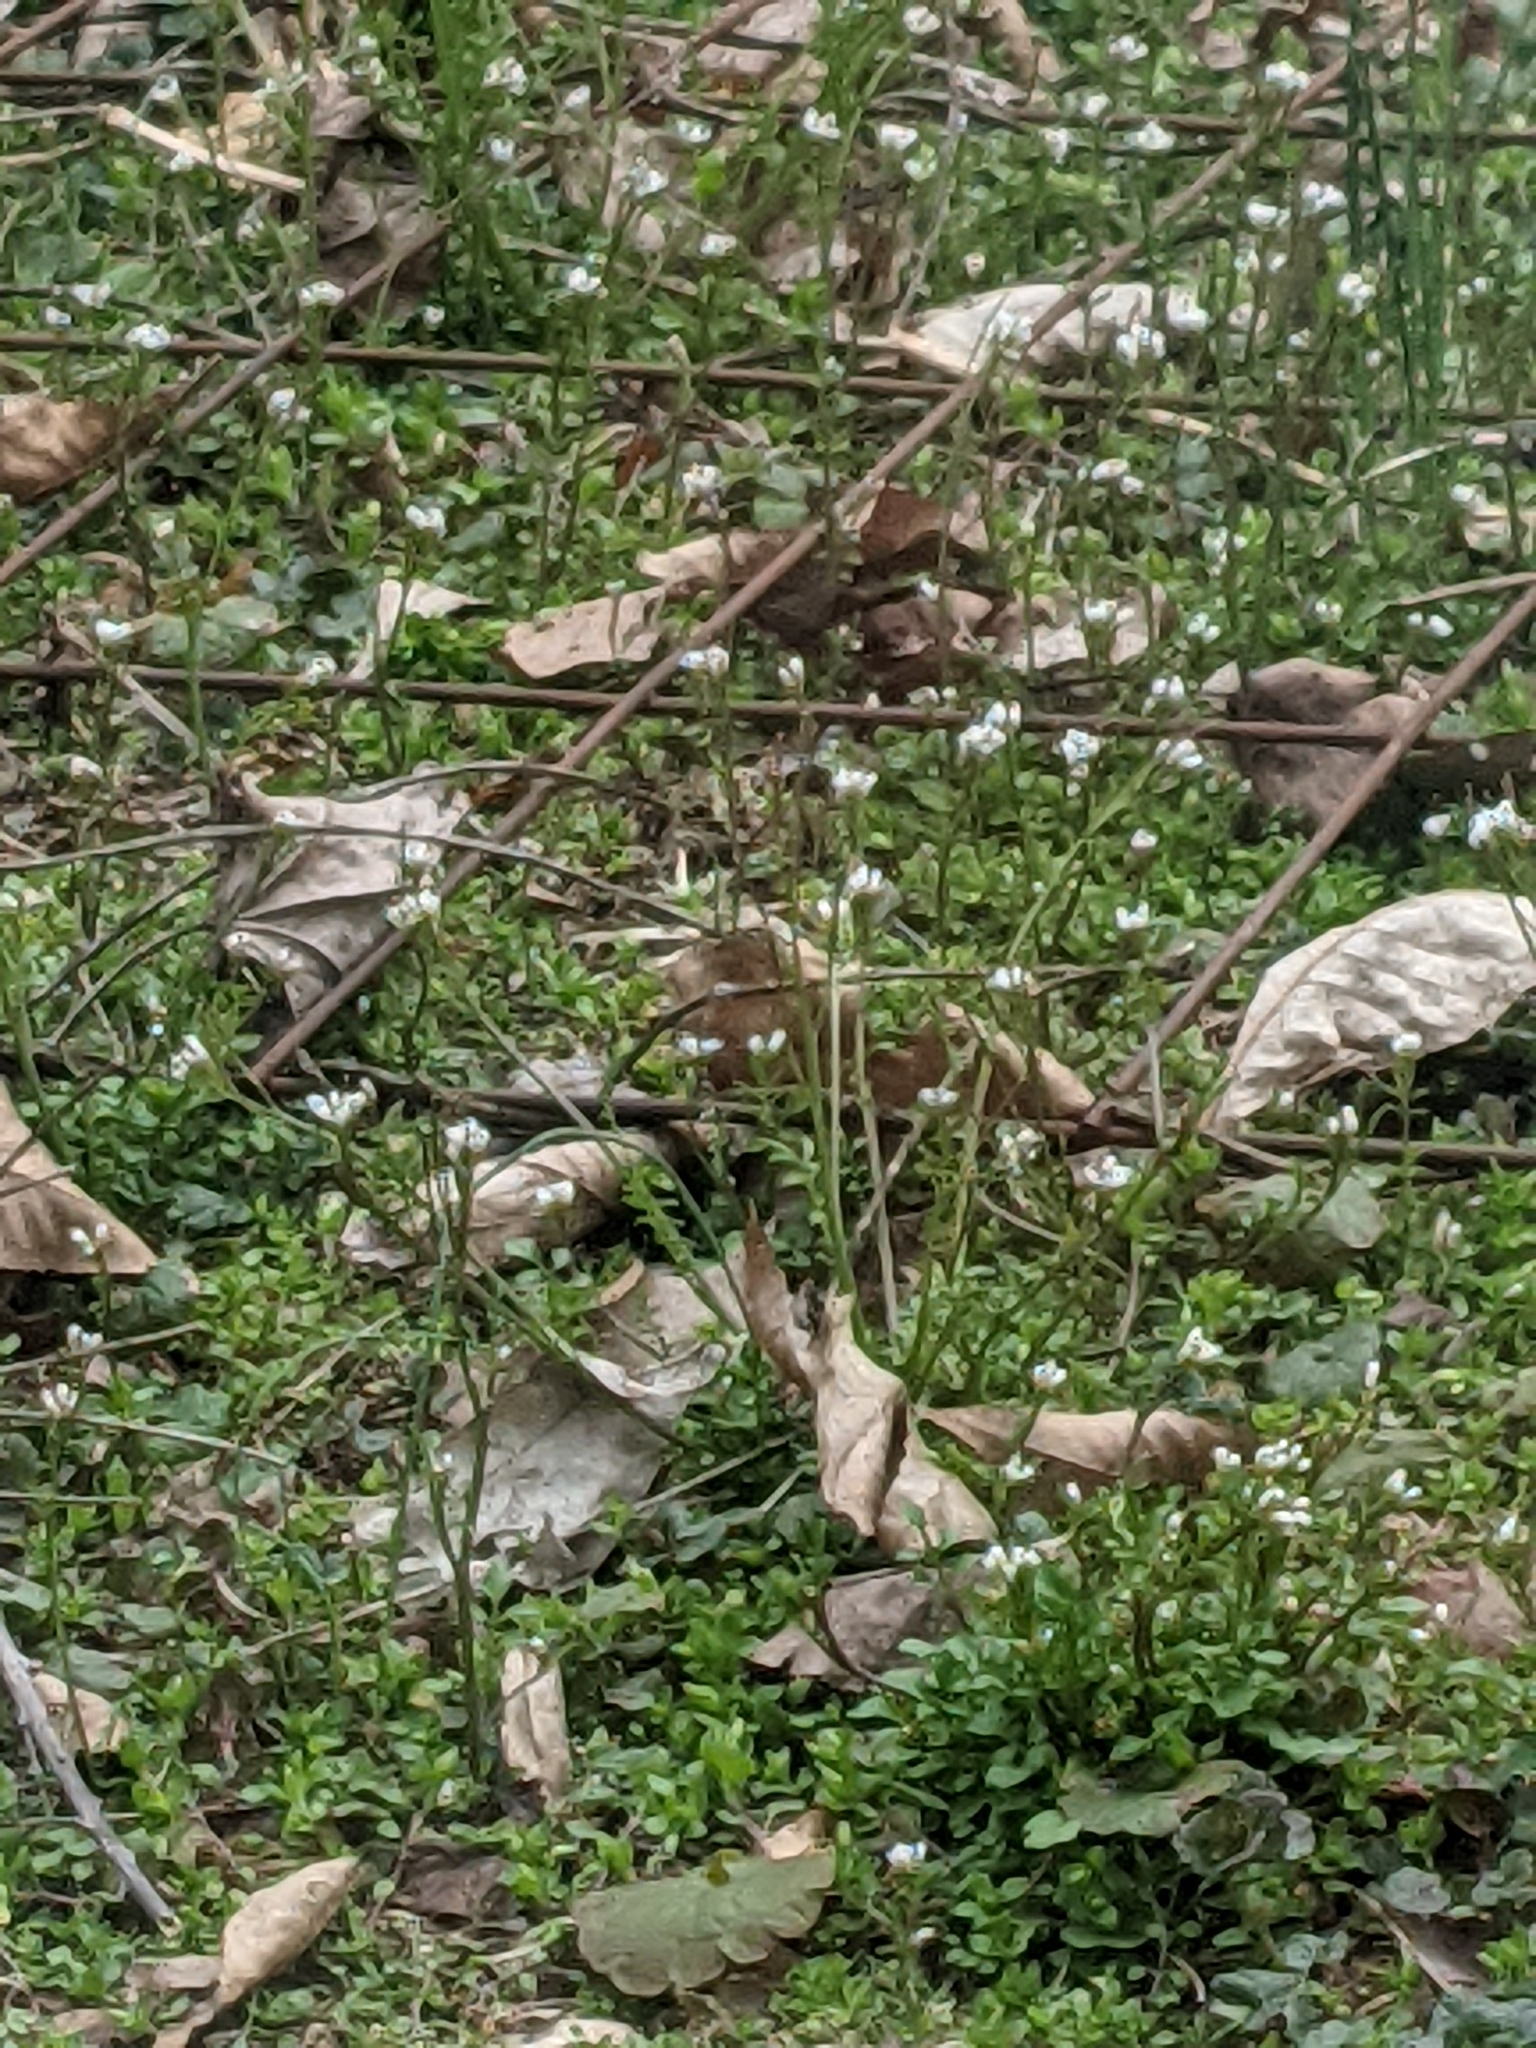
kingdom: Plantae
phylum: Tracheophyta
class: Magnoliopsida
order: Brassicales
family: Brassicaceae
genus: Cardamine
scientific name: Cardamine hirsuta
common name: Hairy bittercress
